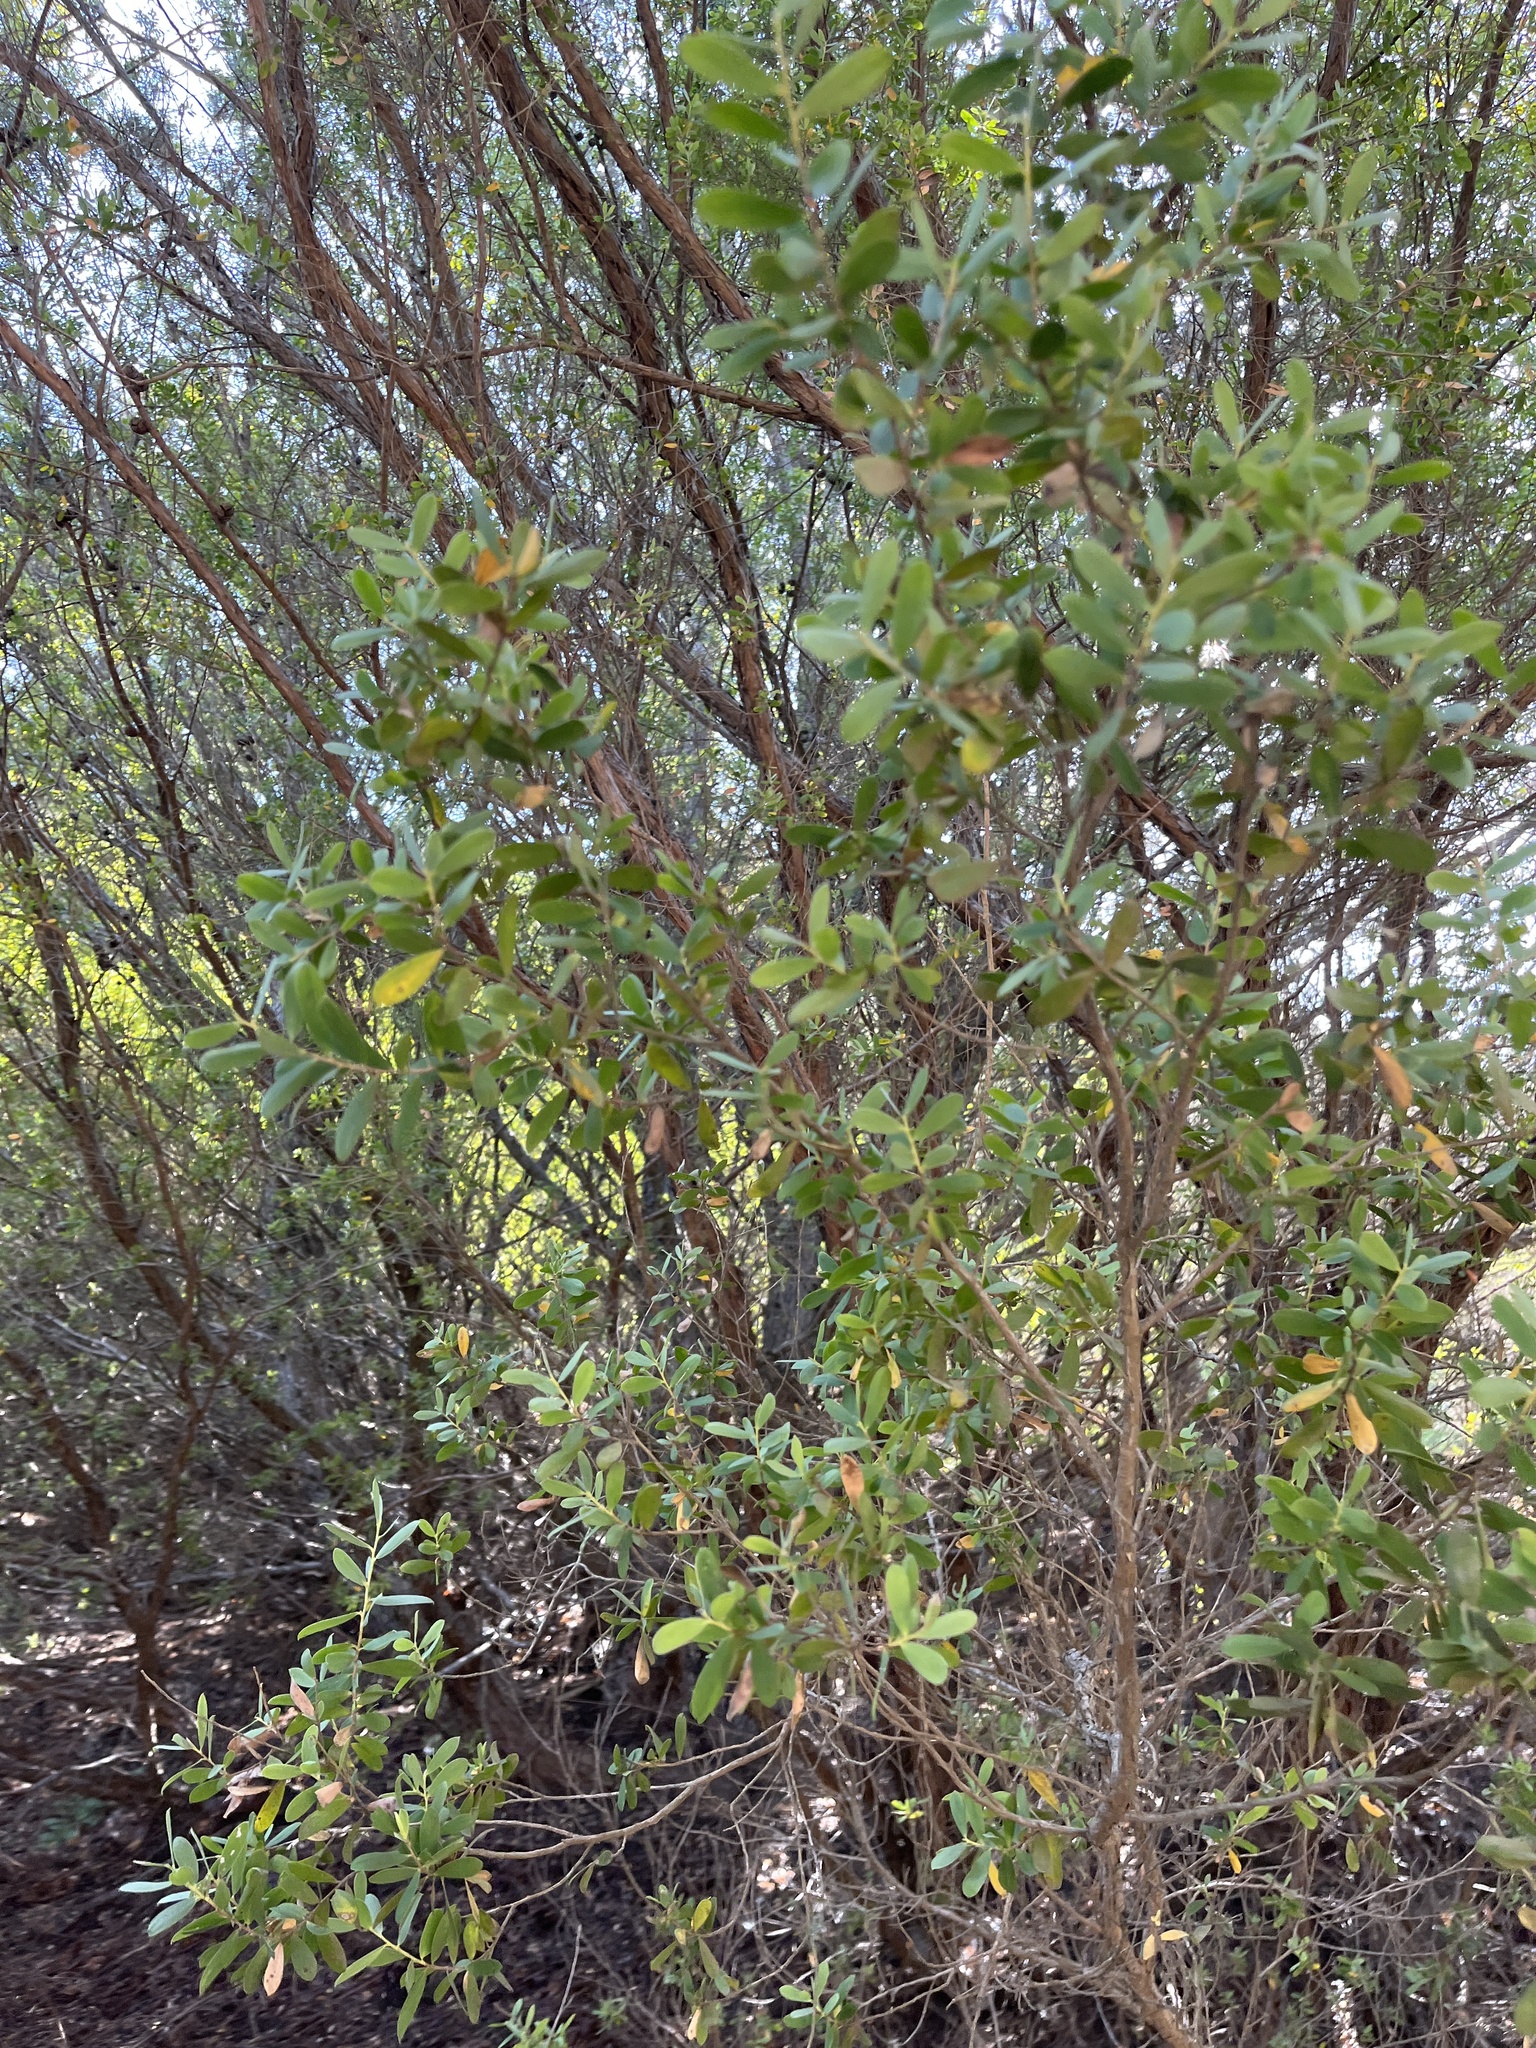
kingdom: Plantae
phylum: Tracheophyta
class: Magnoliopsida
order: Myrtales
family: Myrtaceae
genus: Leptospermum
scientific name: Leptospermum laevigatum
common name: Australian teatree
